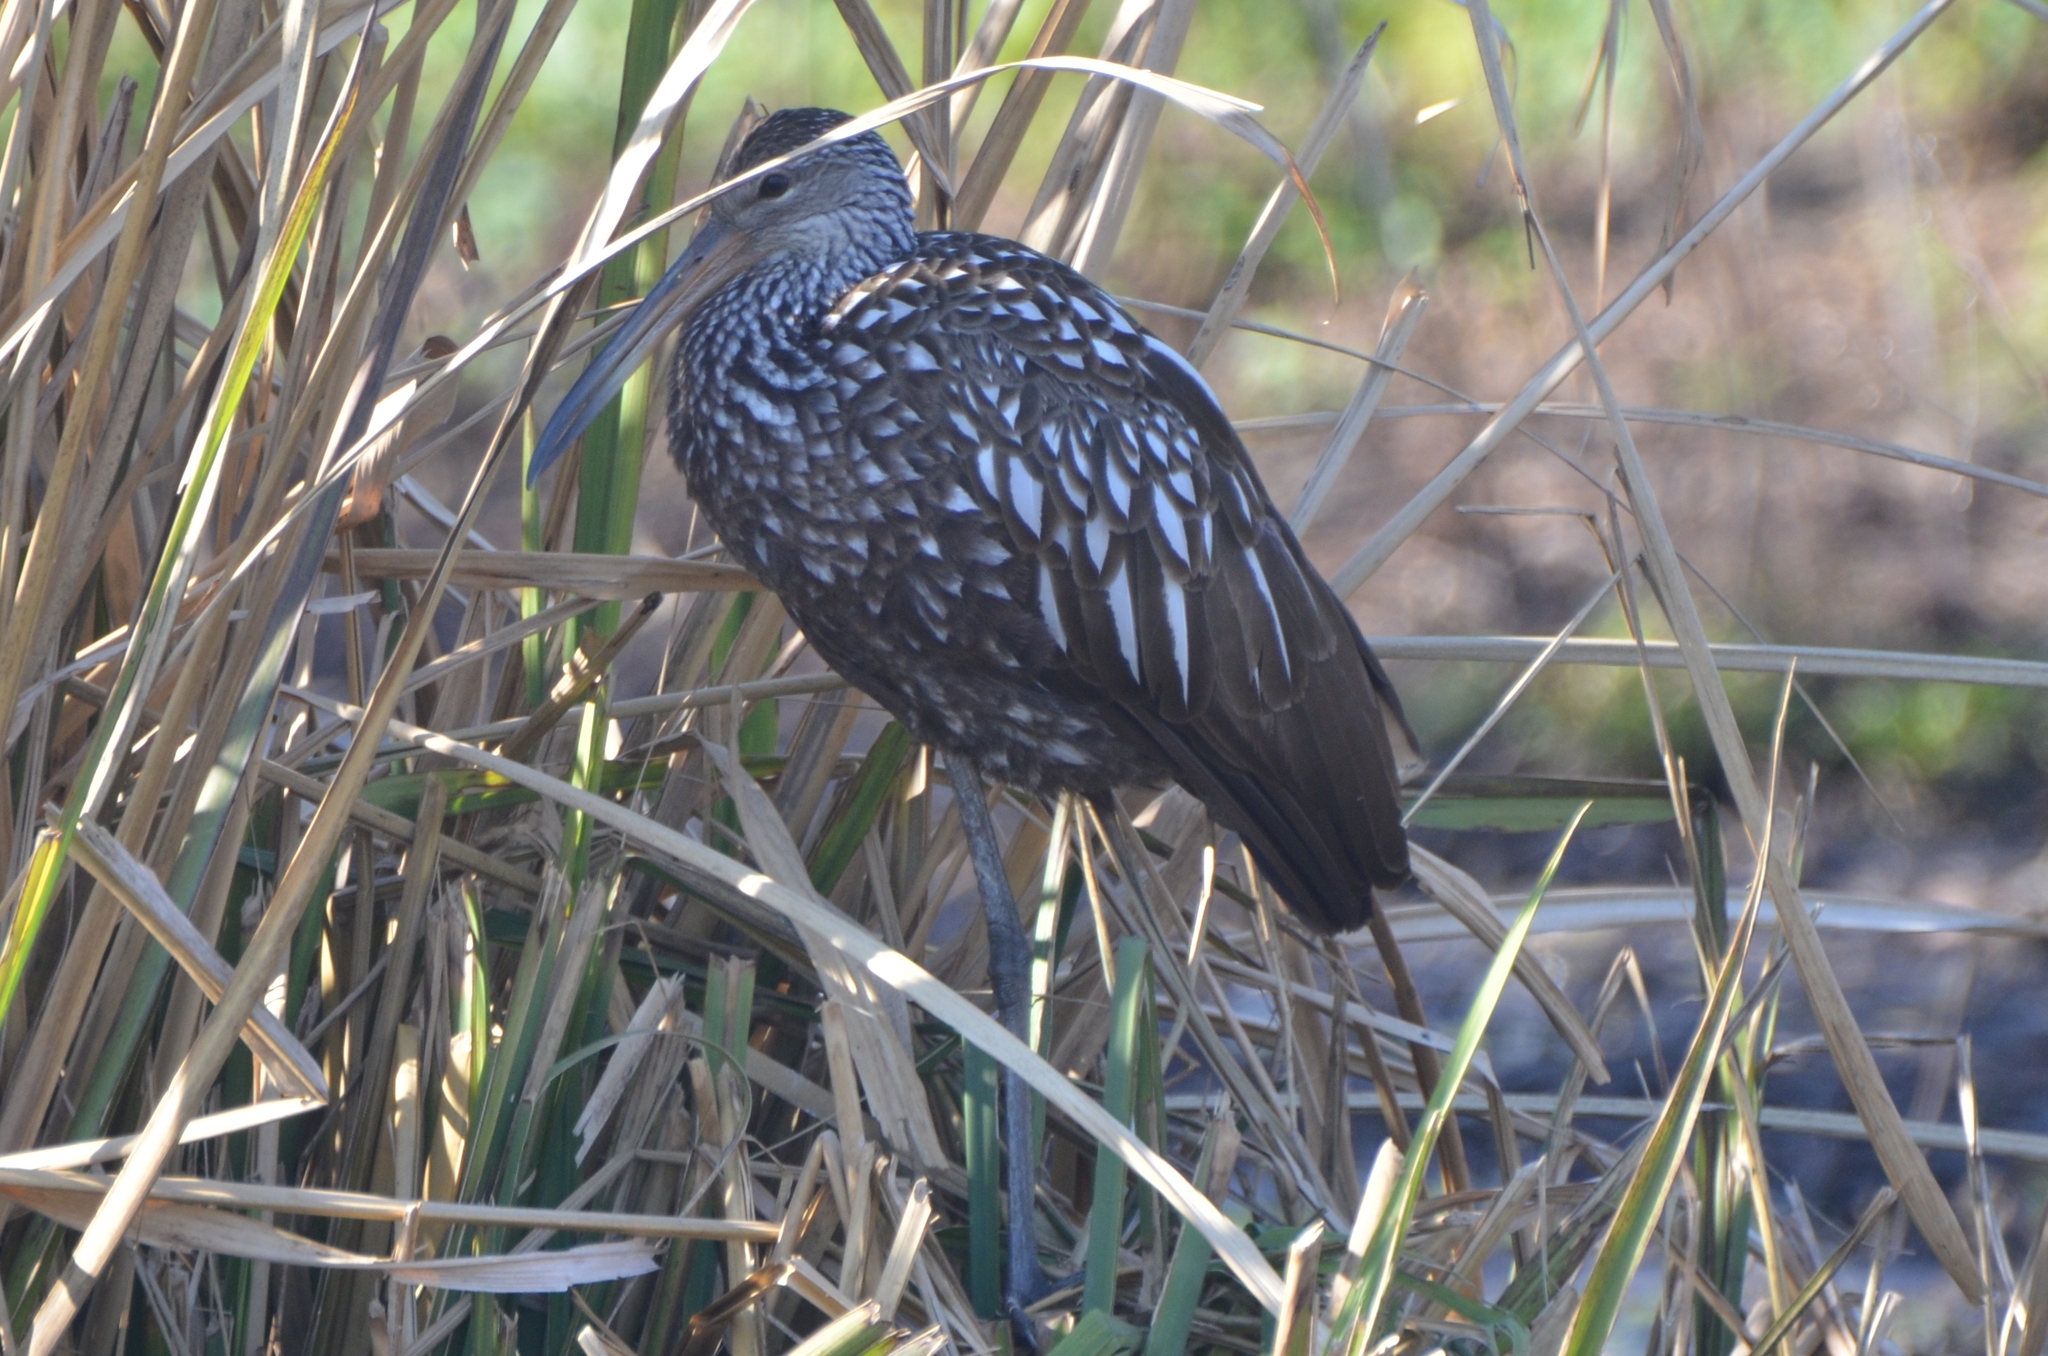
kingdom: Animalia
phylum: Chordata
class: Aves
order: Gruiformes
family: Aramidae
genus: Aramus
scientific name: Aramus guarauna
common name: Limpkin
